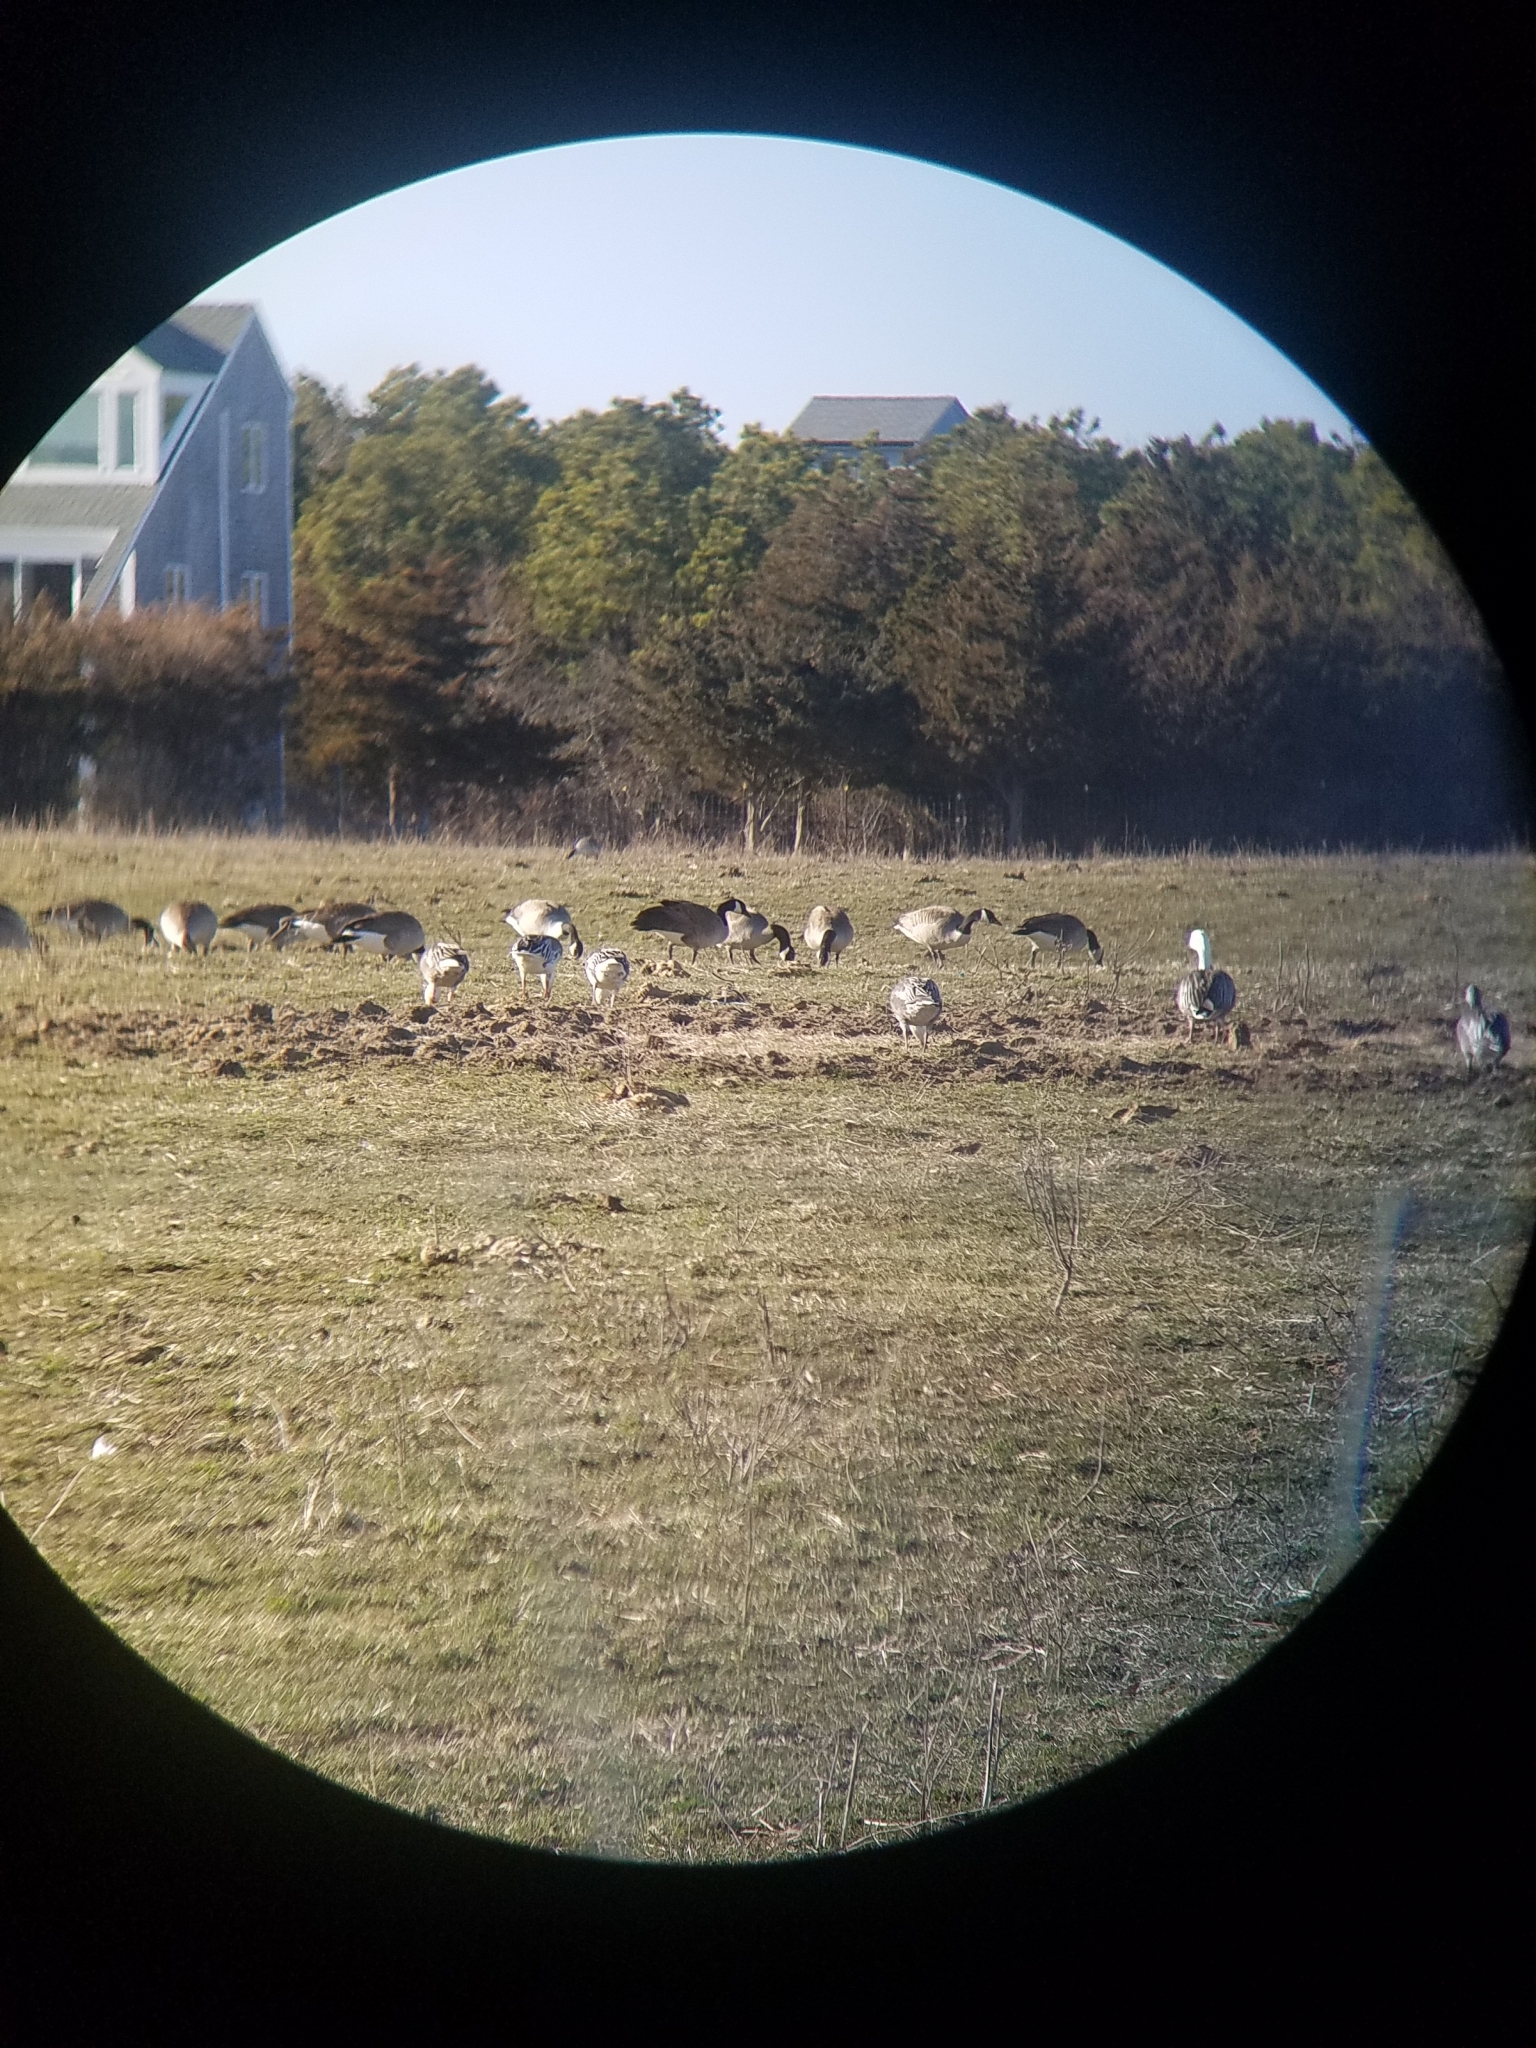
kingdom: Animalia
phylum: Chordata
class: Aves
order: Anseriformes
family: Anatidae
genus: Anser
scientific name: Anser caerulescens
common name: Snow goose
